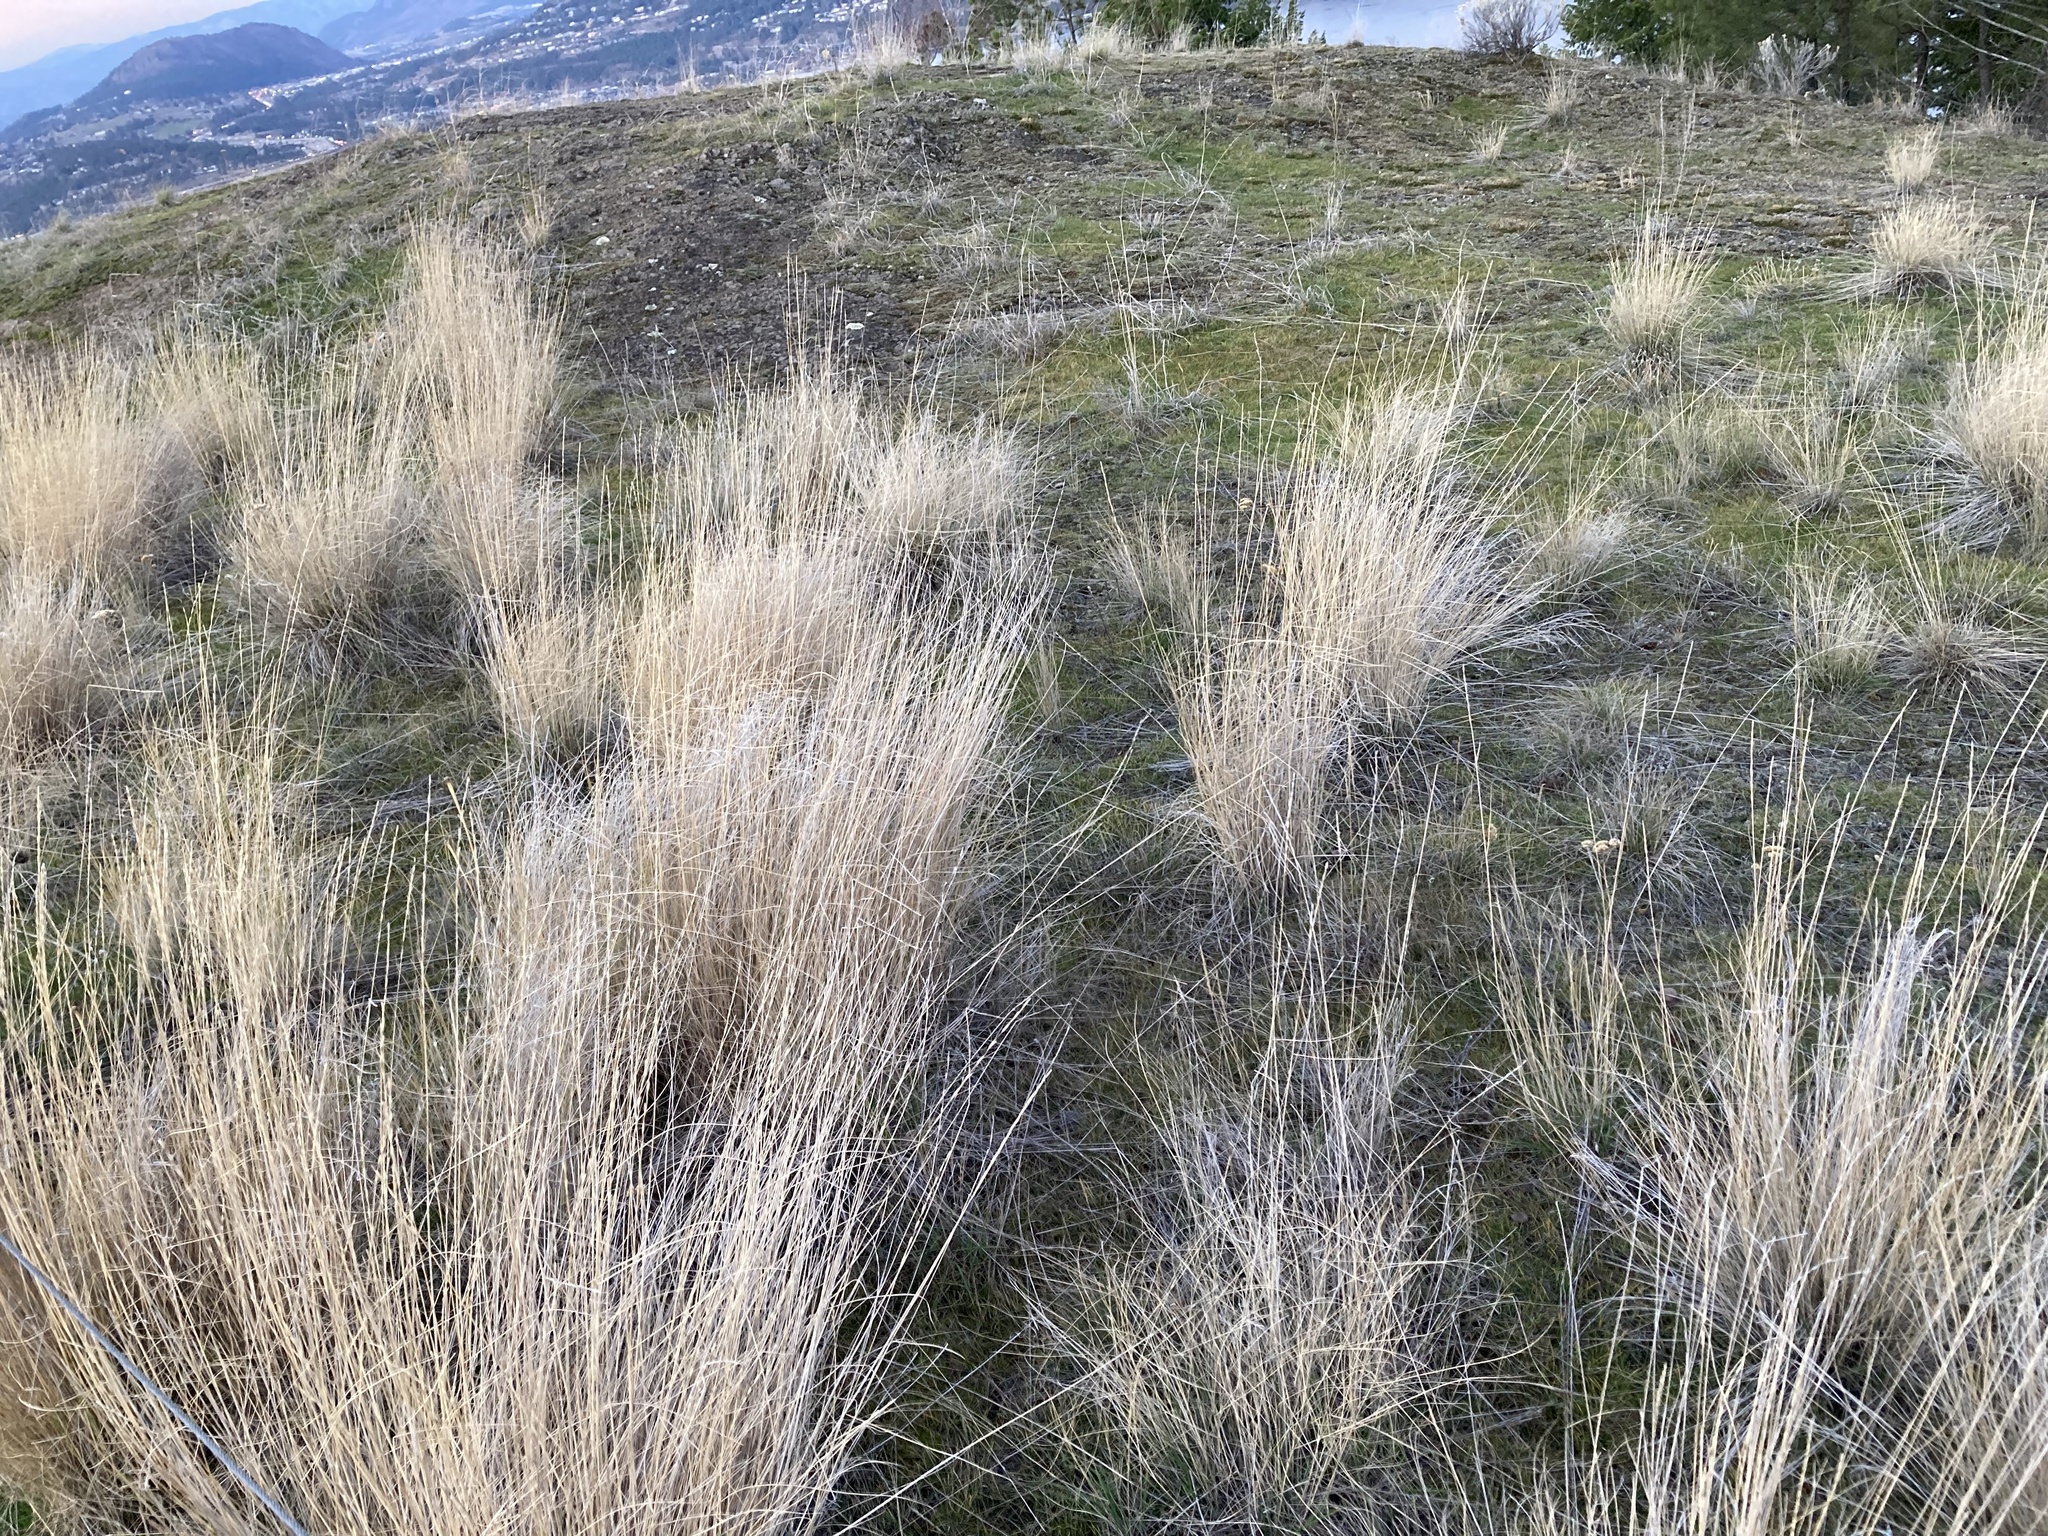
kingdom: Plantae
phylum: Tracheophyta
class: Liliopsida
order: Poales
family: Poaceae
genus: Pseudoroegneria
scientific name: Pseudoroegneria spicata
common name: Bluebunch wheatgrass
